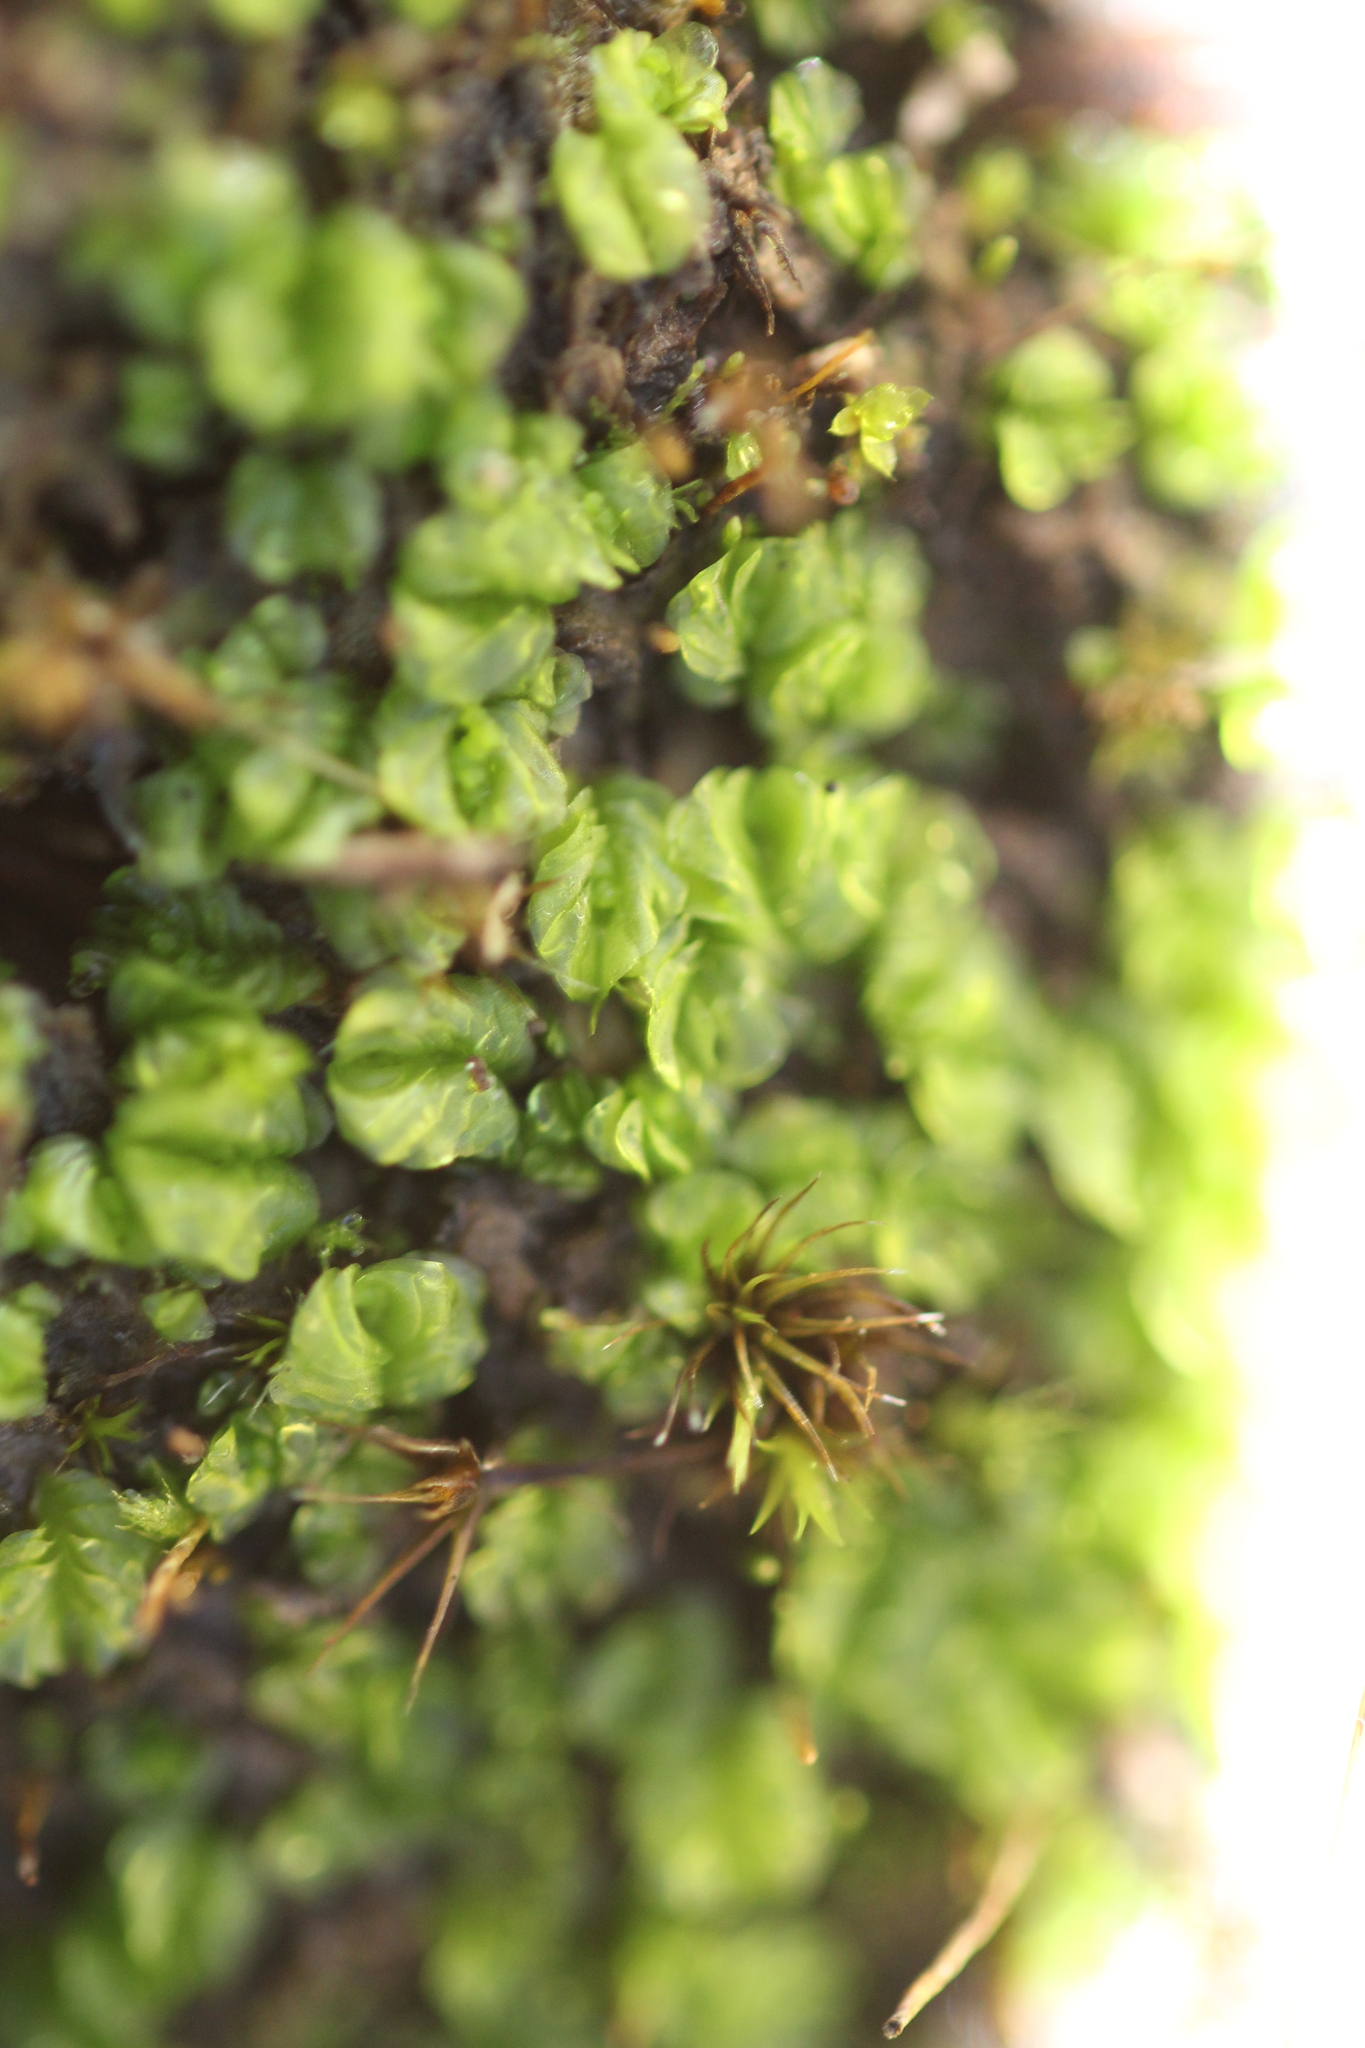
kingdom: Plantae
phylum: Marchantiophyta
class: Jungermanniopsida
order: Jungermanniales
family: Acrobolbaceae
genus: Lethocolea
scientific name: Lethocolea pansa
